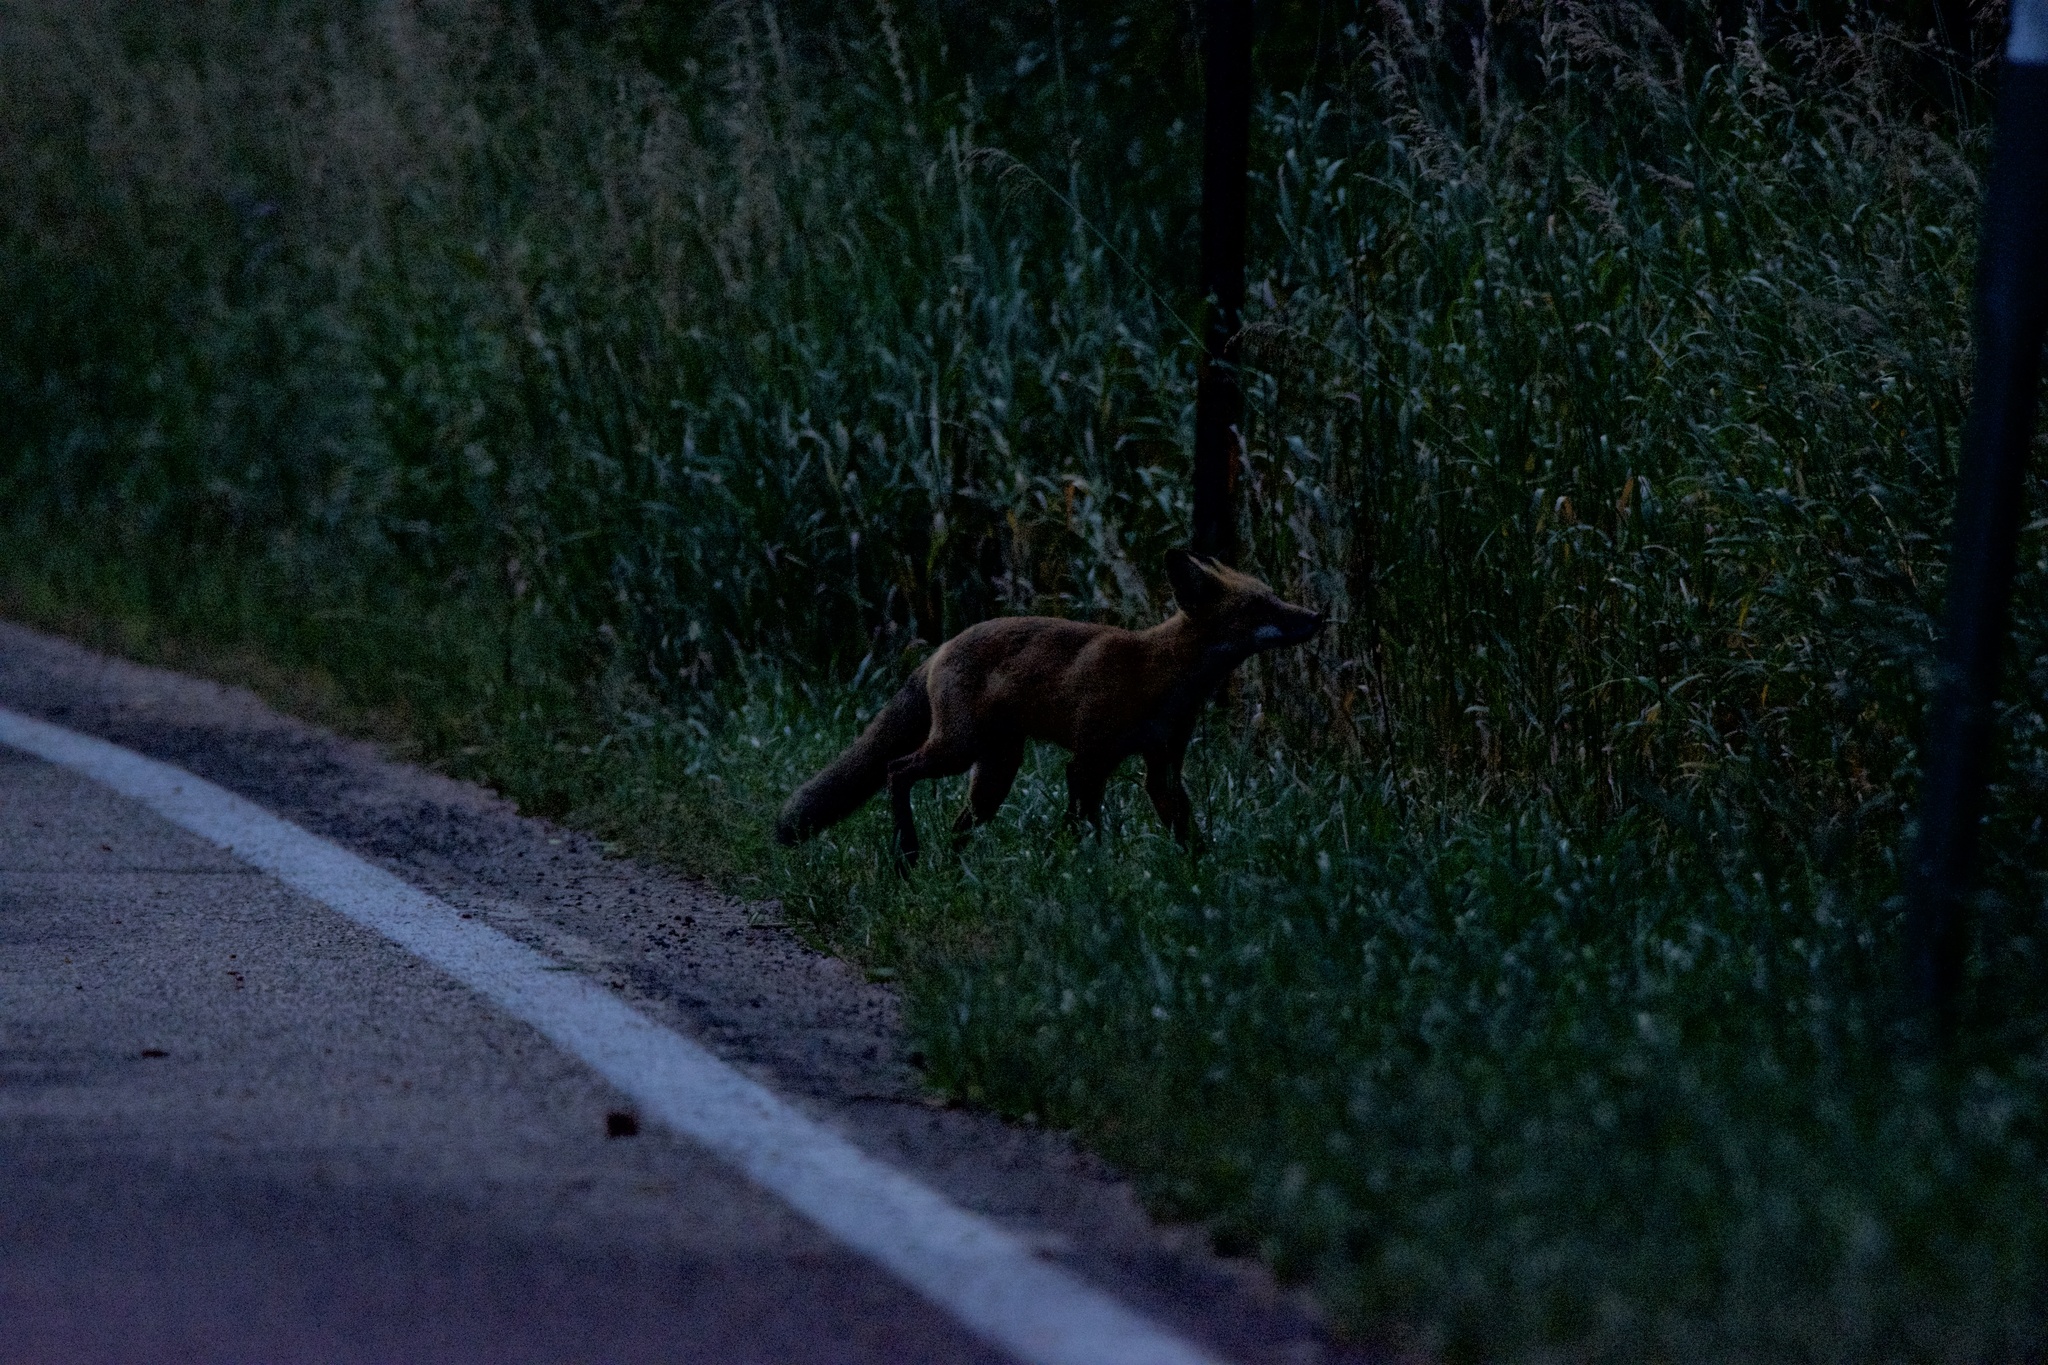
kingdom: Animalia
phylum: Chordata
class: Mammalia
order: Carnivora
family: Canidae
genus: Vulpes
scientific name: Vulpes vulpes
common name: Red fox
